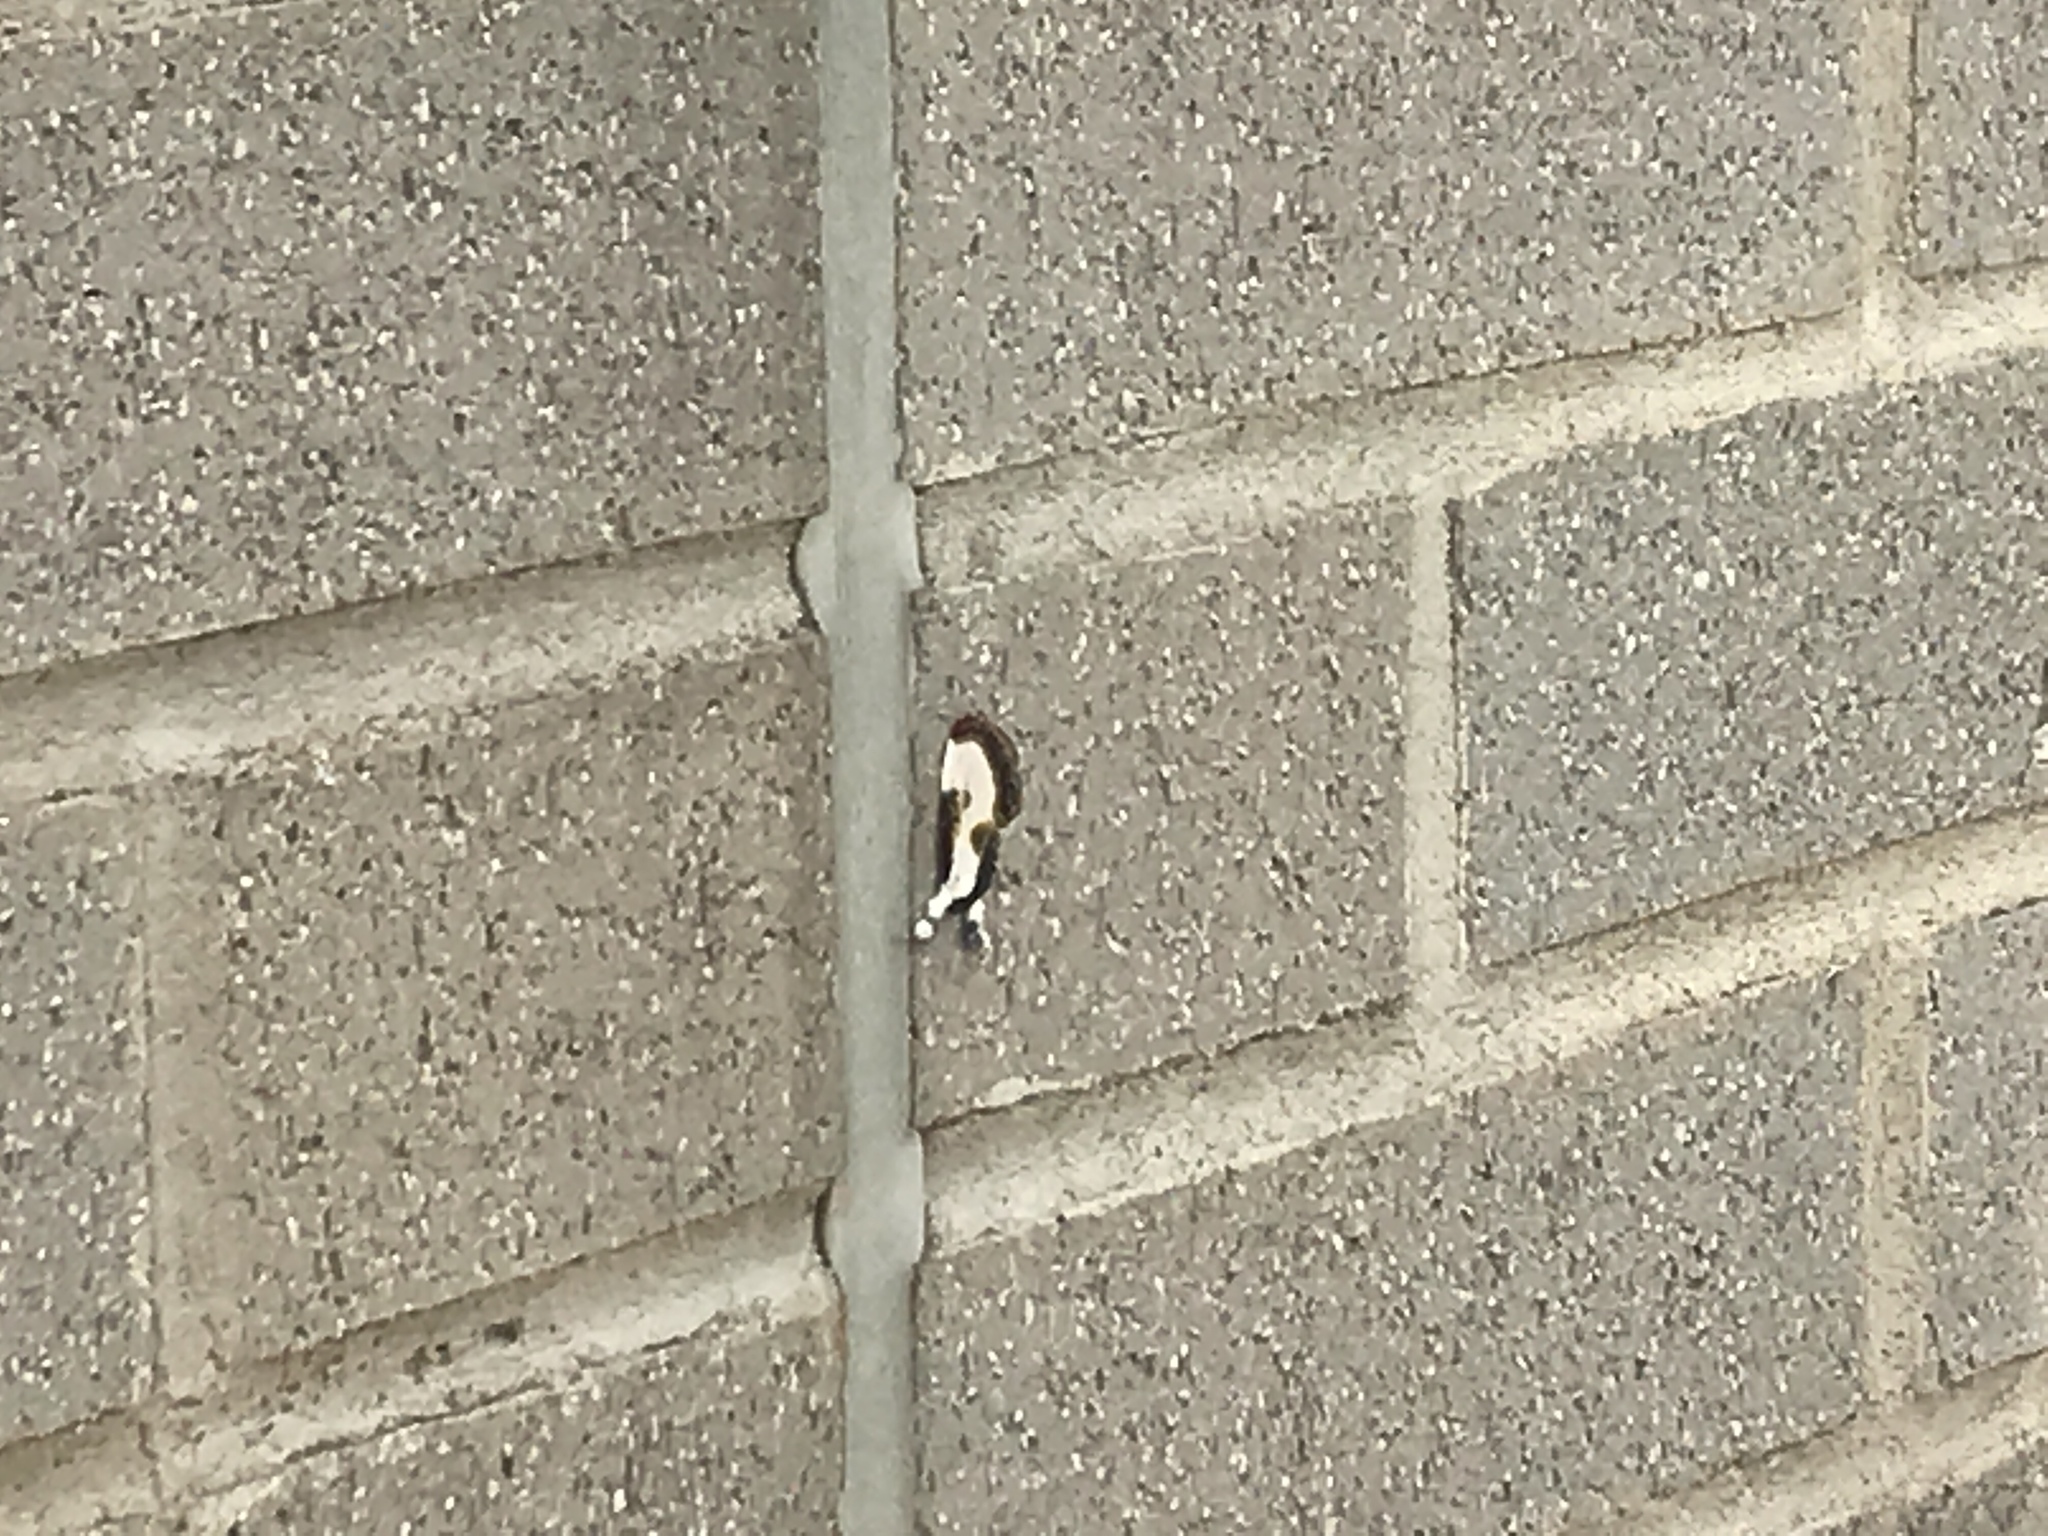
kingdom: Animalia
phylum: Arthropoda
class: Insecta
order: Lepidoptera
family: Noctuidae
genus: Eudryas
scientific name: Eudryas grata
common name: Beautiful wood-nymph
